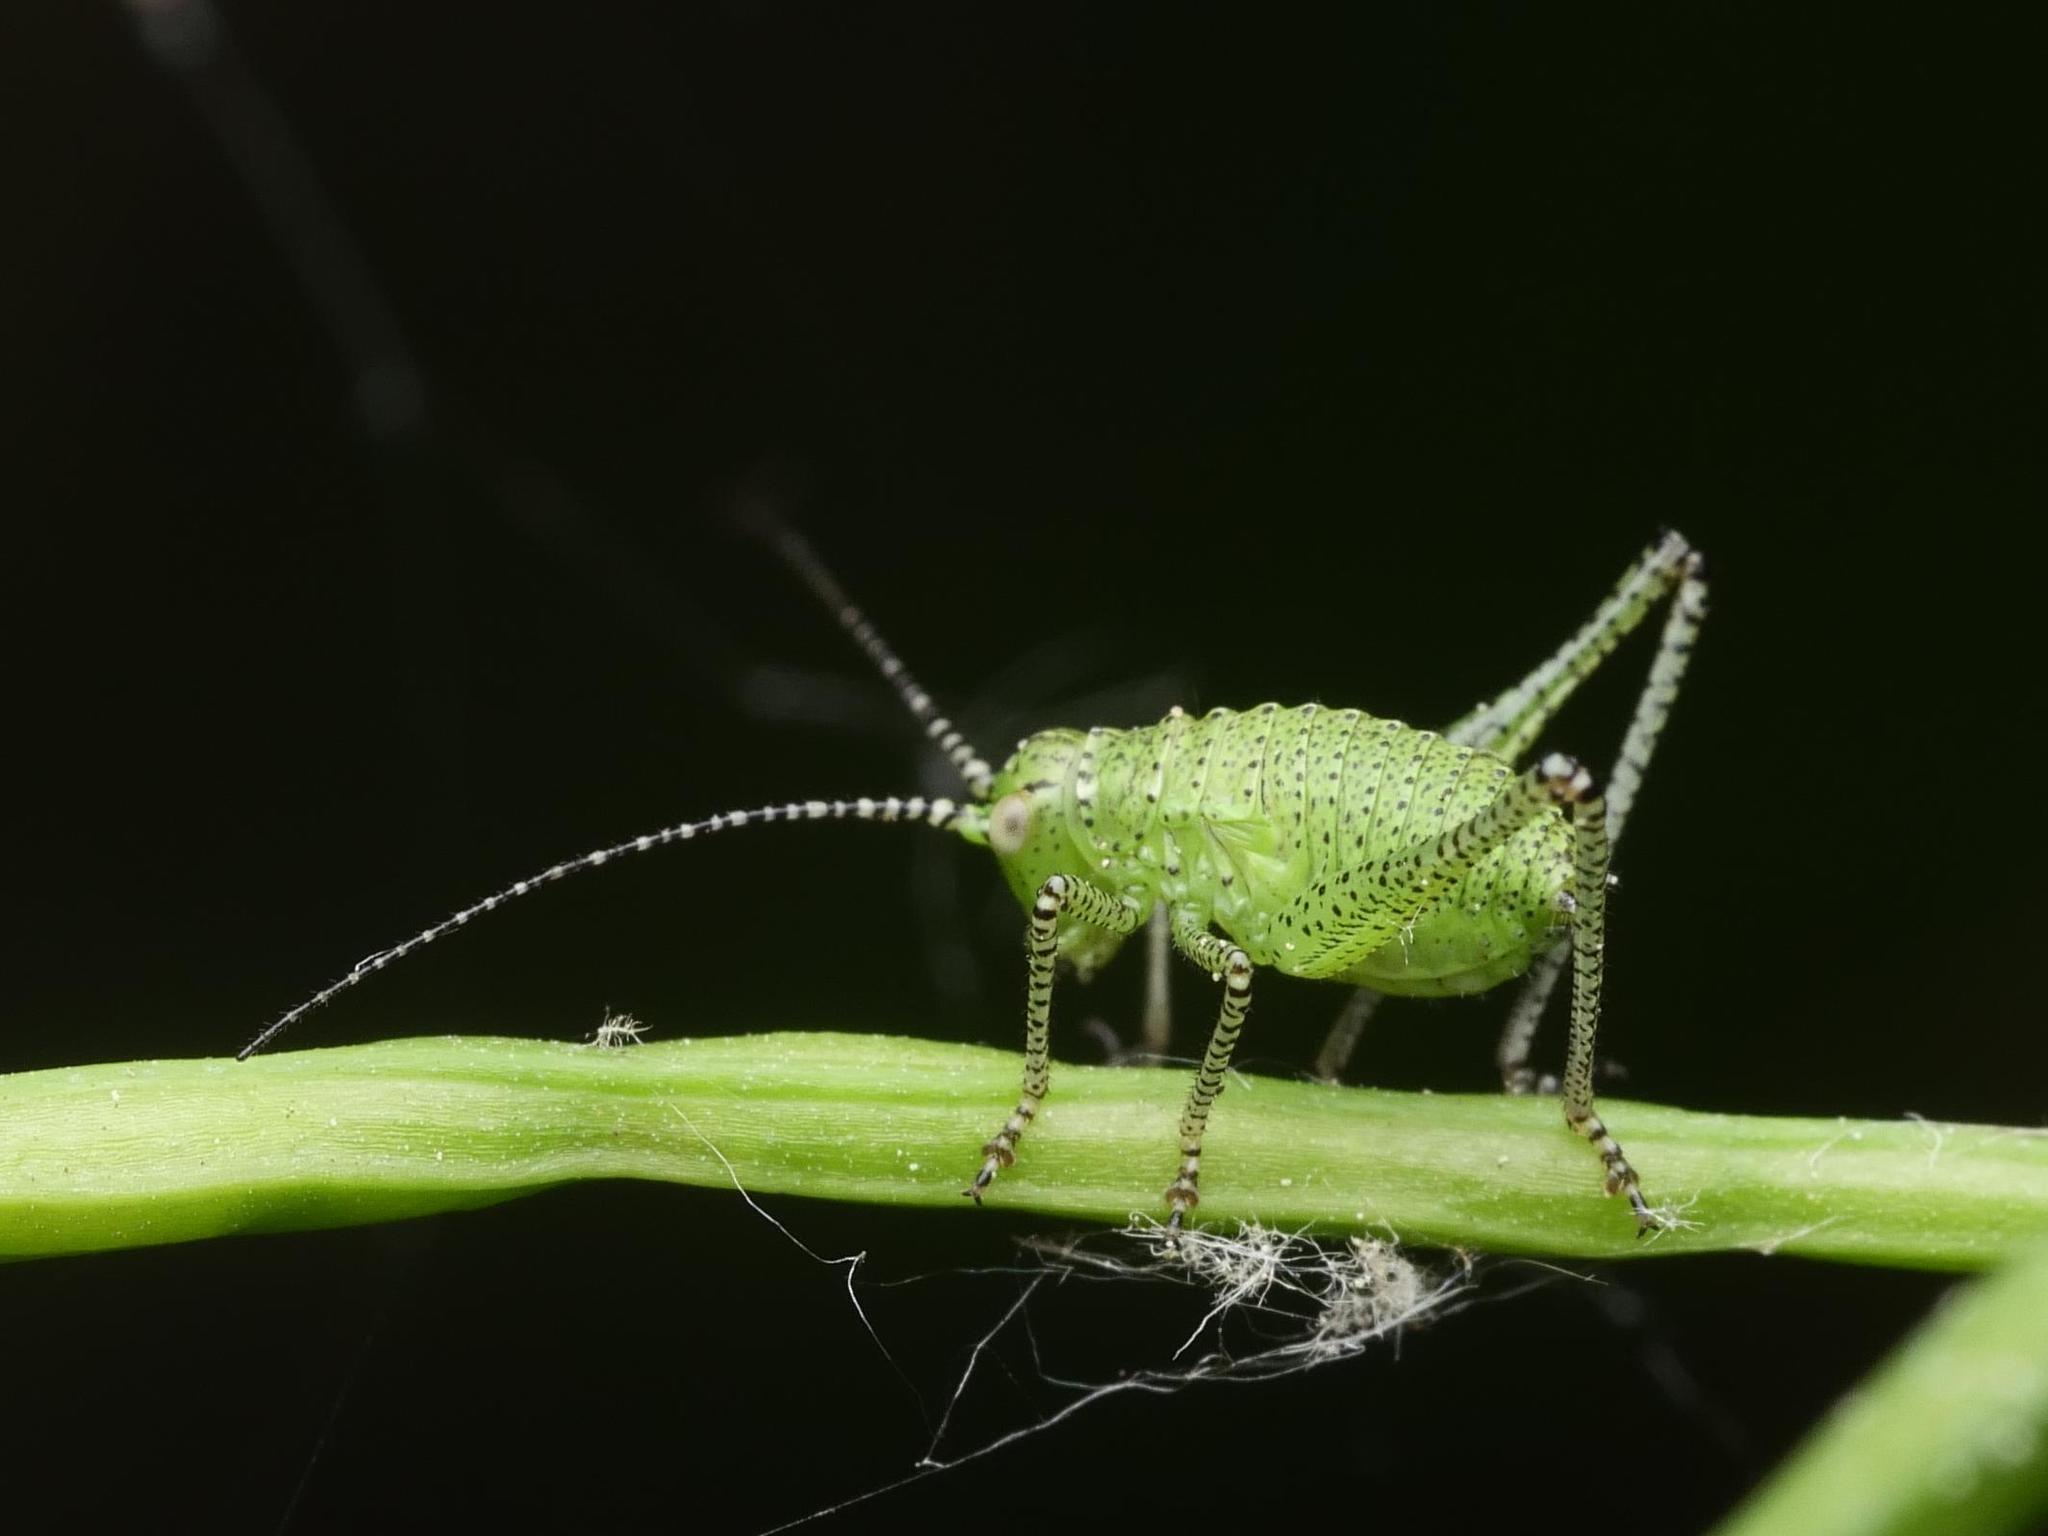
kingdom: Animalia
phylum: Arthropoda
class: Insecta
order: Orthoptera
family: Tettigoniidae
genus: Leptophyes
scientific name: Leptophyes punctatissima
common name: Speckled bush-cricket
